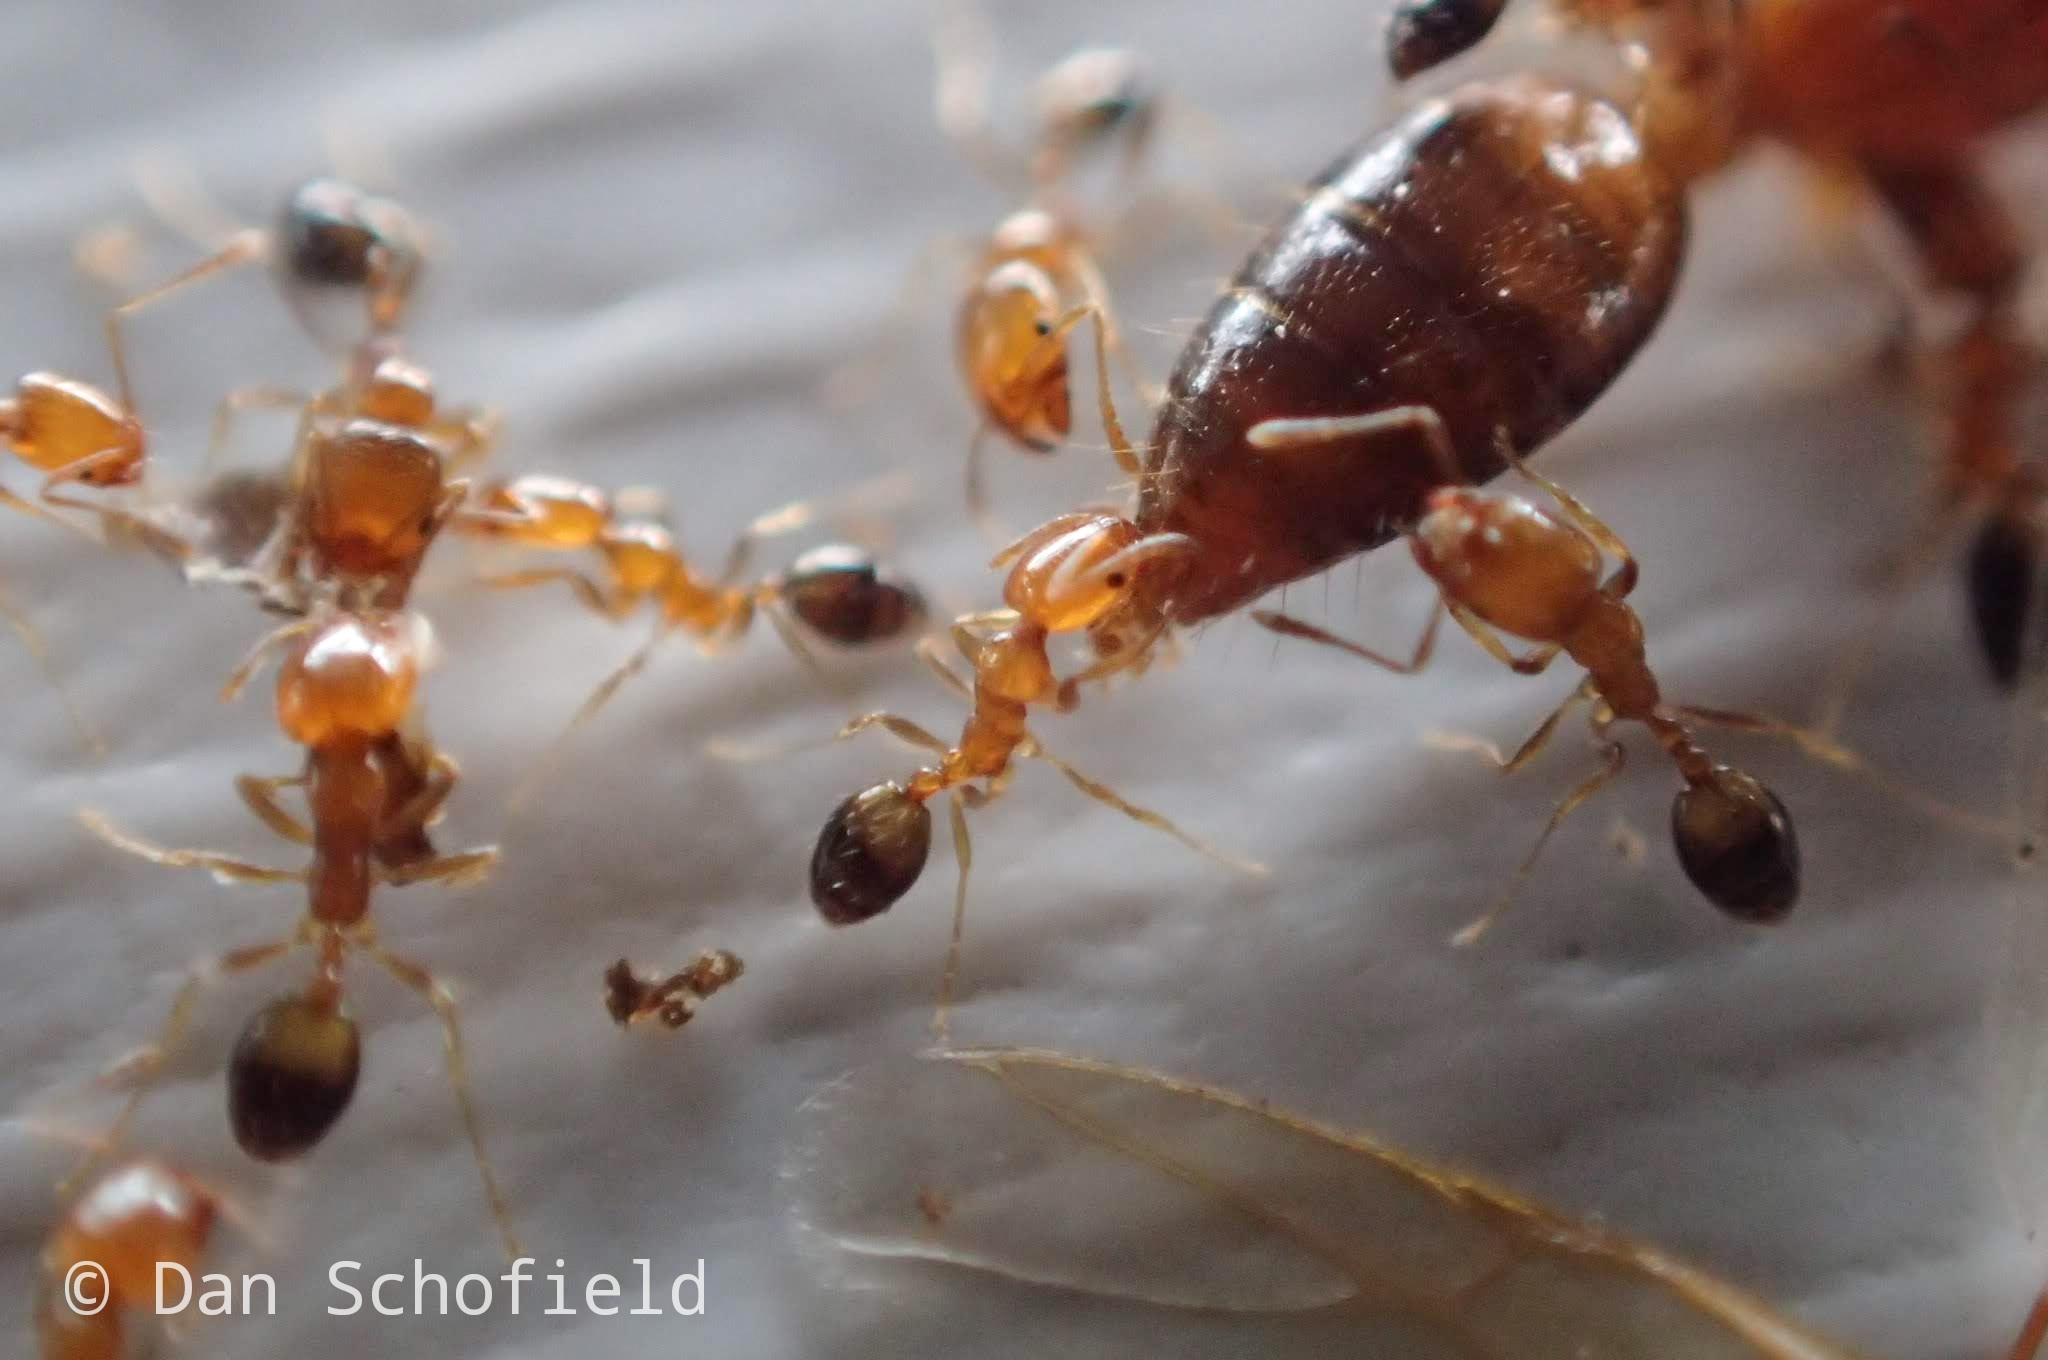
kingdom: Animalia
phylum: Arthropoda
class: Insecta
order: Hymenoptera
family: Formicidae
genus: Monomorium
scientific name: Monomorium destructor
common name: Destructive trailing ant
